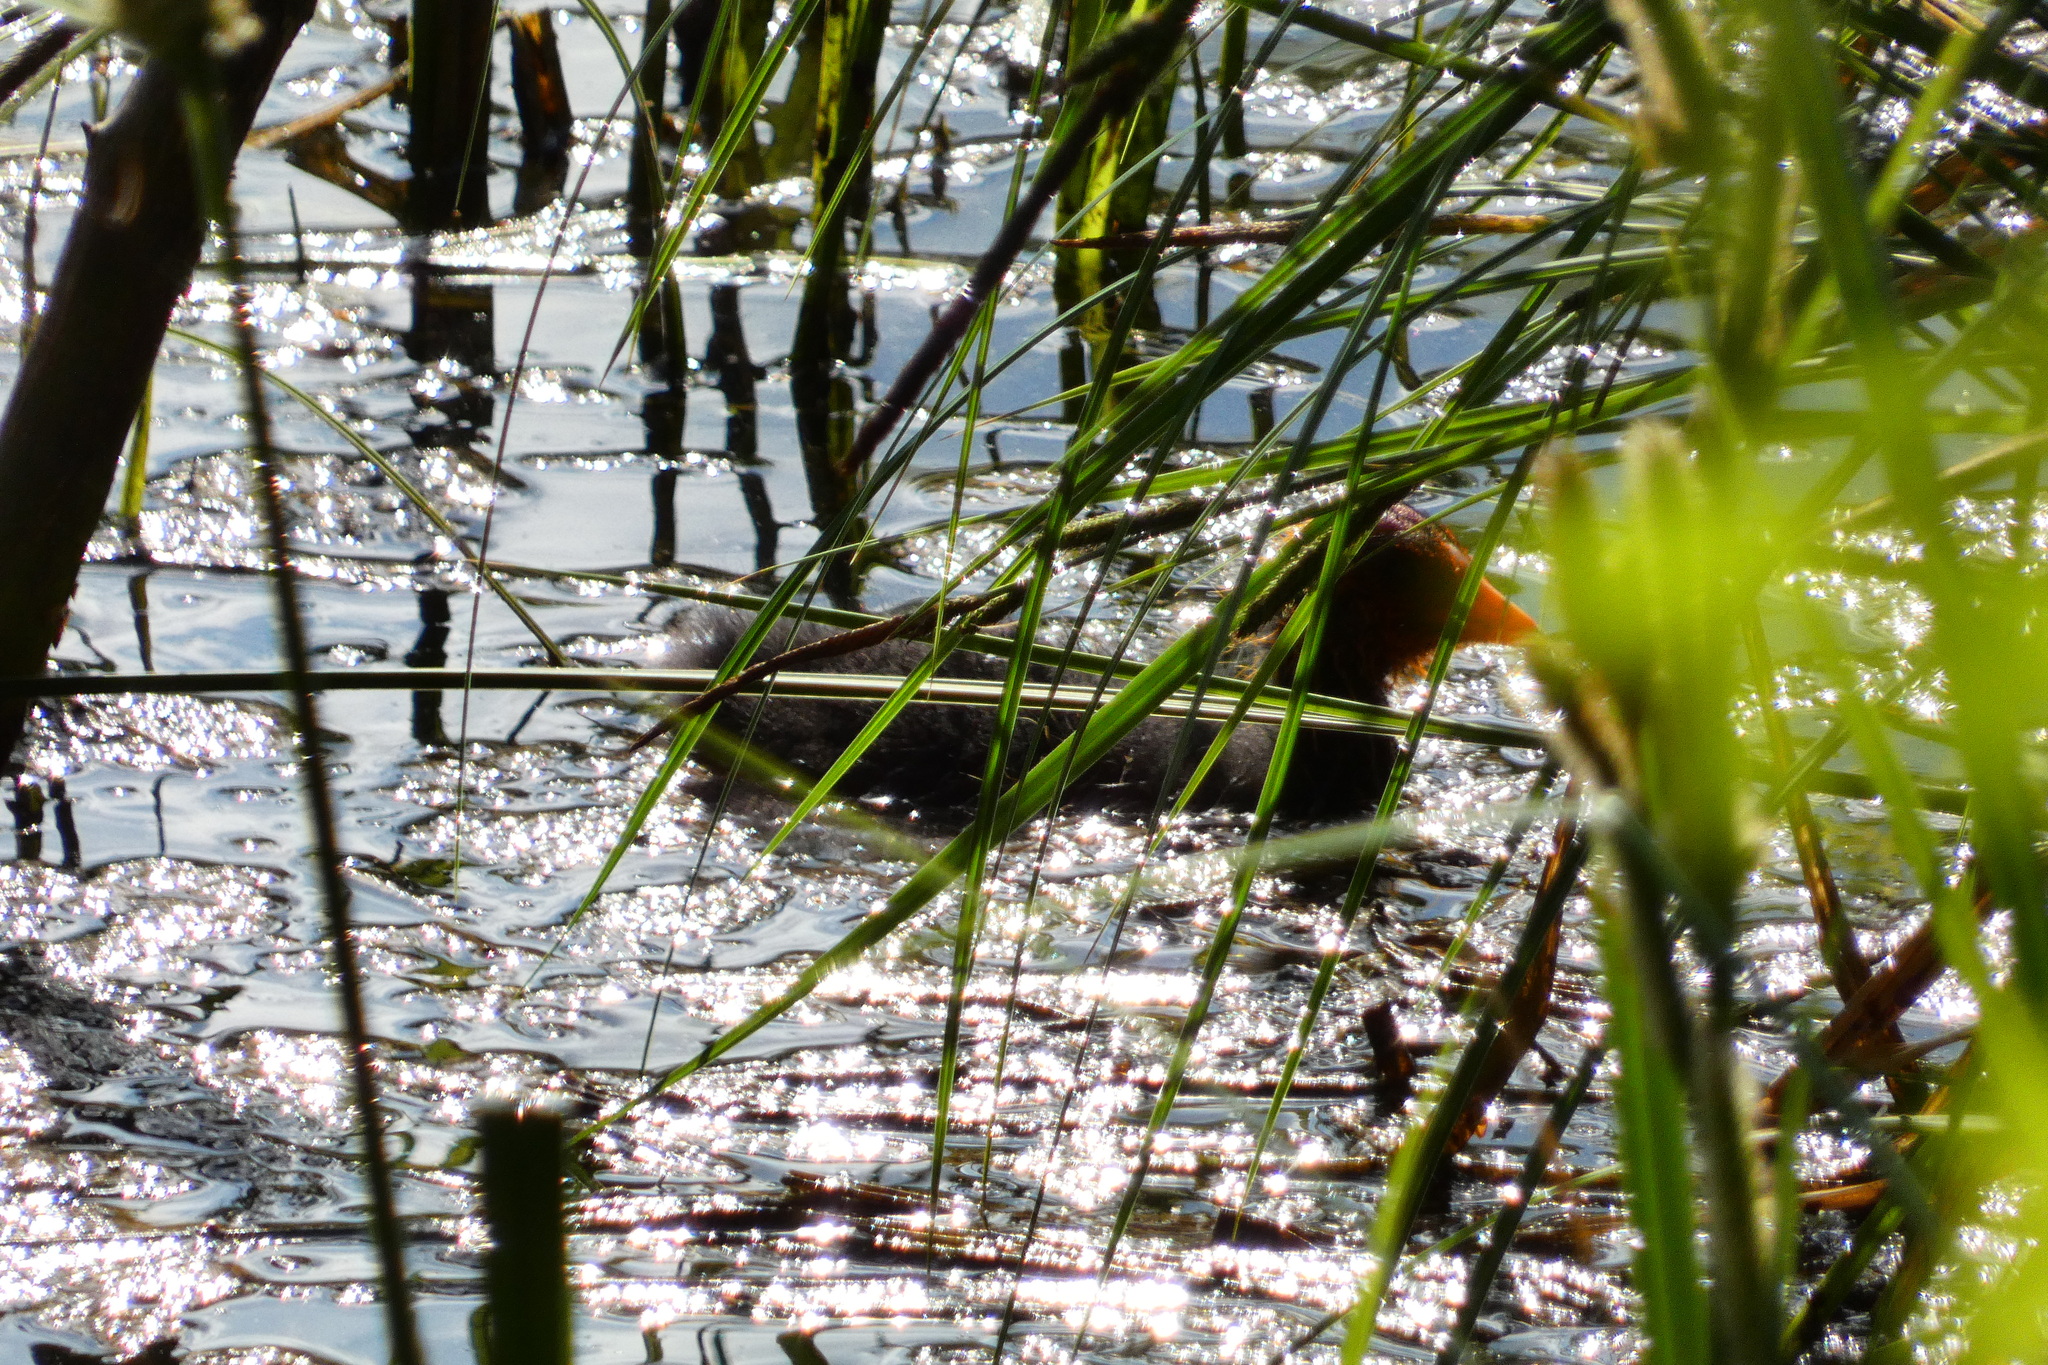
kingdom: Animalia
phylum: Chordata
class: Aves
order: Gruiformes
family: Rallidae
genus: Fulica
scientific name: Fulica atra
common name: Eurasian coot
